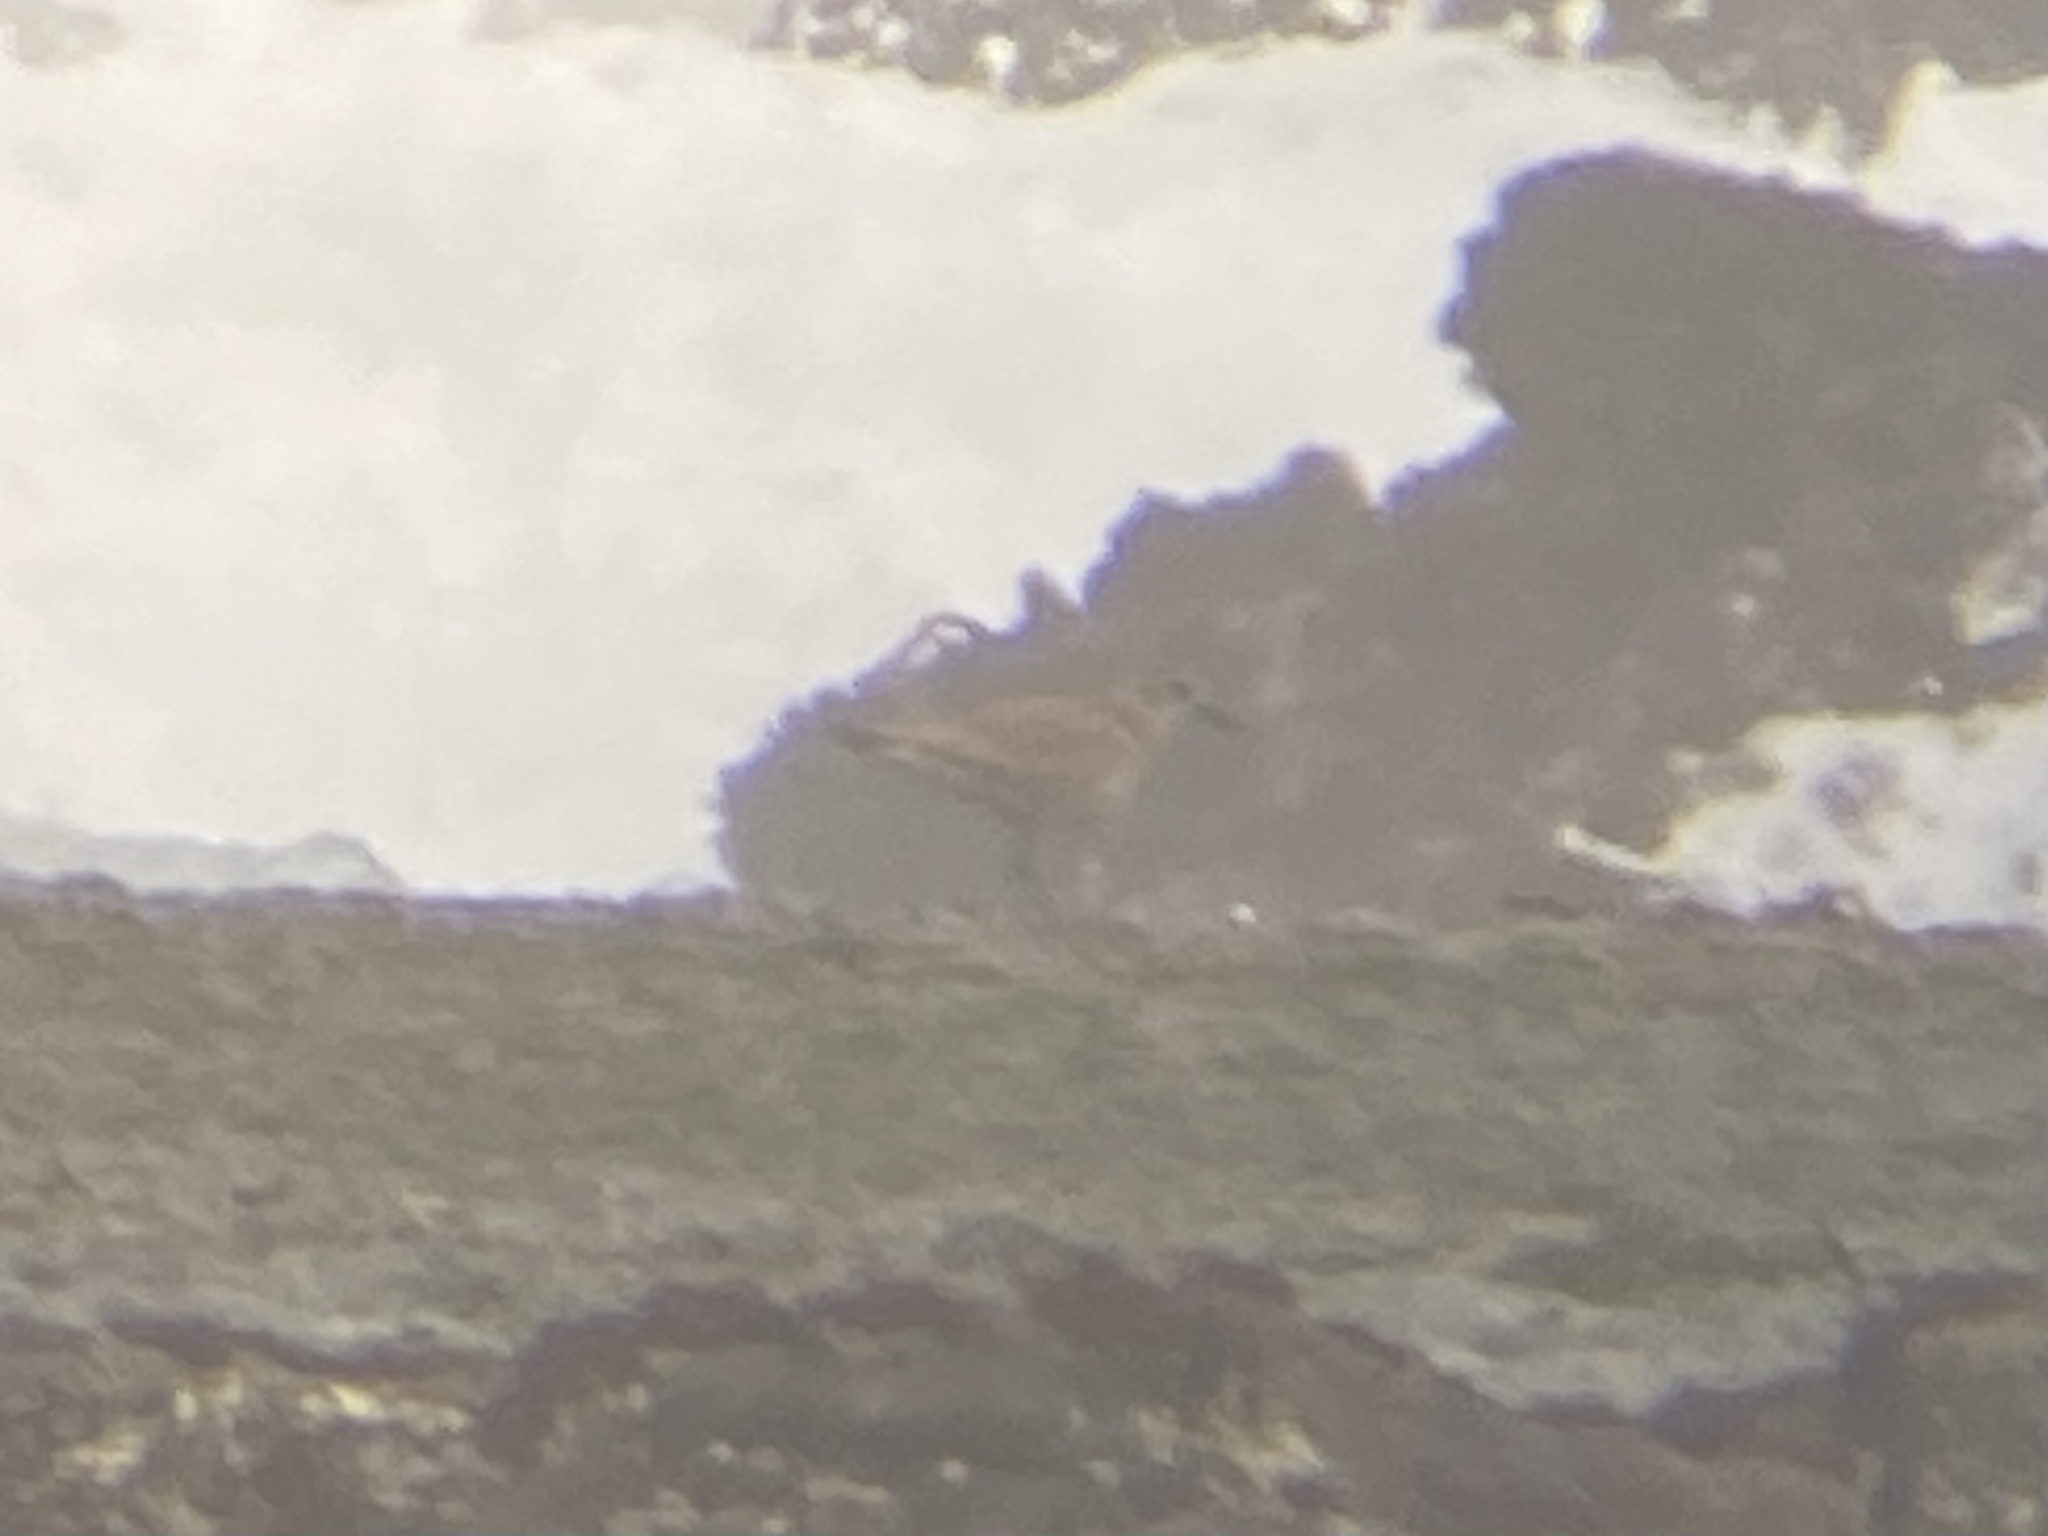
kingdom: Animalia
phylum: Chordata
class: Aves
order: Charadriiformes
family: Charadriidae
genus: Pluvialis
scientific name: Pluvialis squatarola
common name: Grey plover
